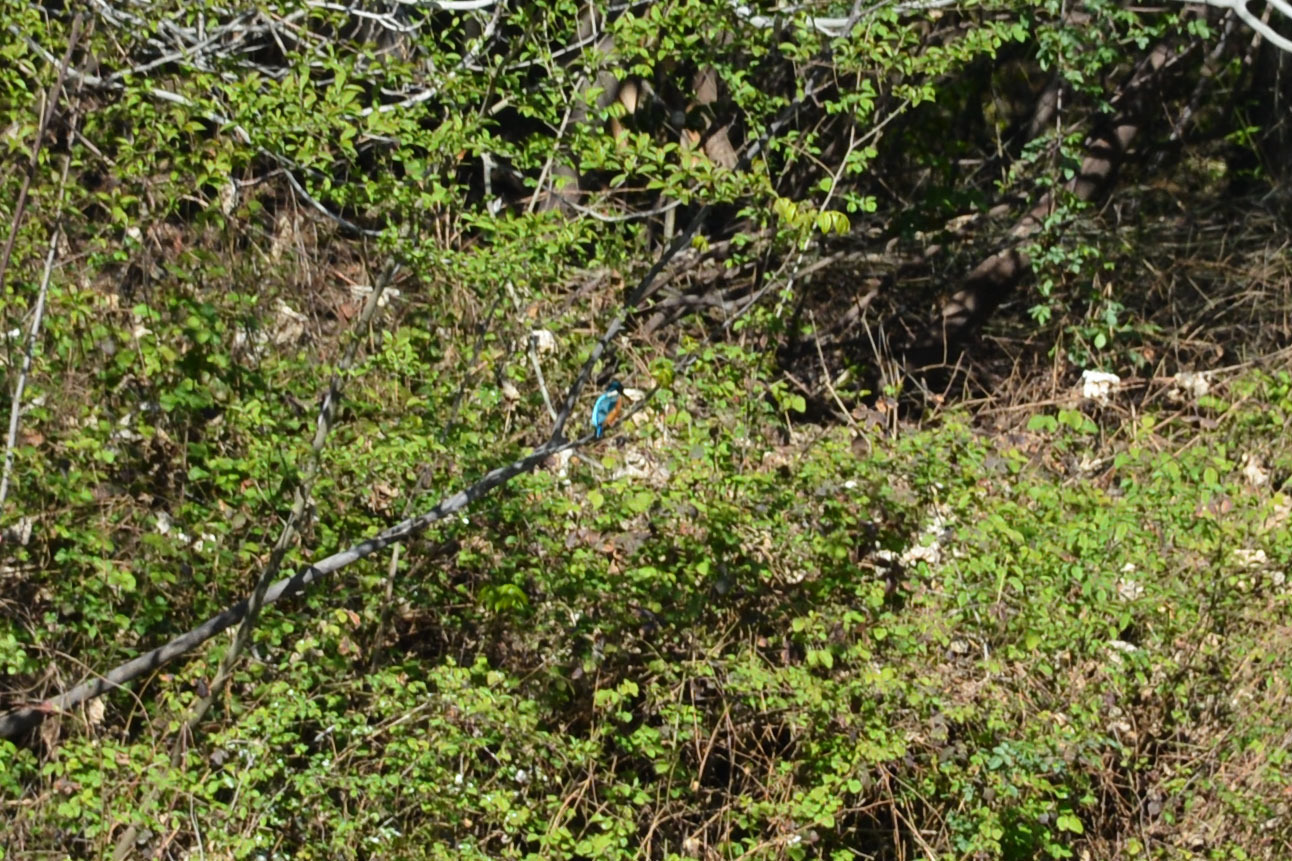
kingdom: Animalia
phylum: Chordata
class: Aves
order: Coraciiformes
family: Alcedinidae
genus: Alcedo
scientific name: Alcedo atthis
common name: Common kingfisher
